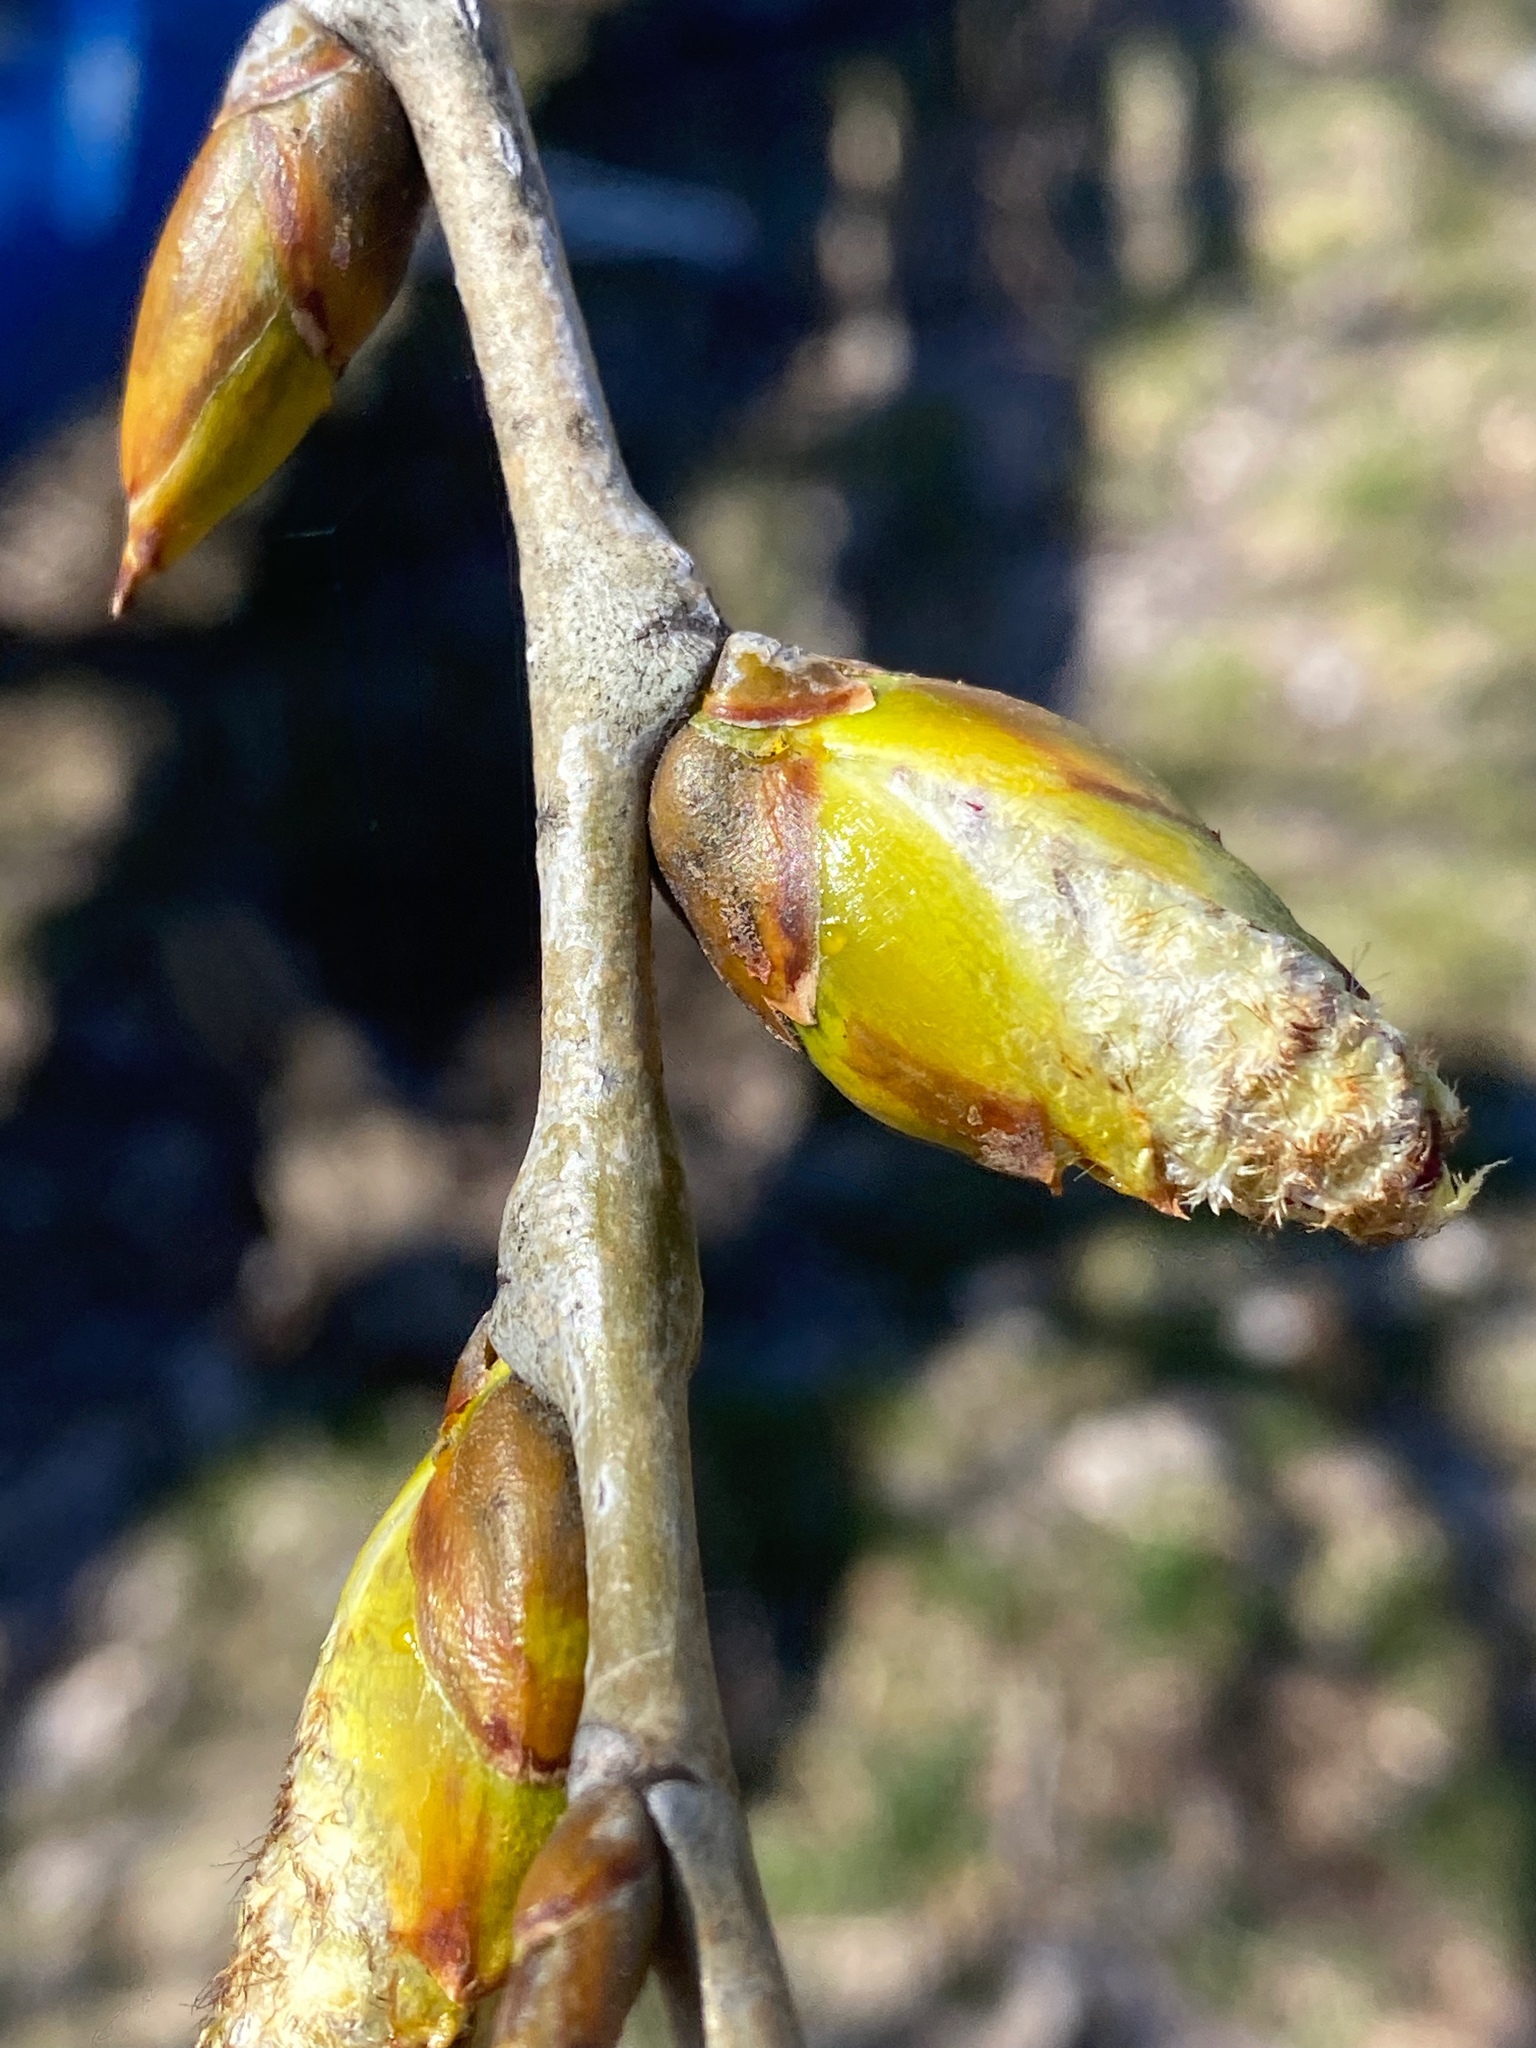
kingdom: Plantae
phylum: Tracheophyta
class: Magnoliopsida
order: Malpighiales
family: Salicaceae
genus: Populus
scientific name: Populus deltoides
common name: Eastern cottonwood
